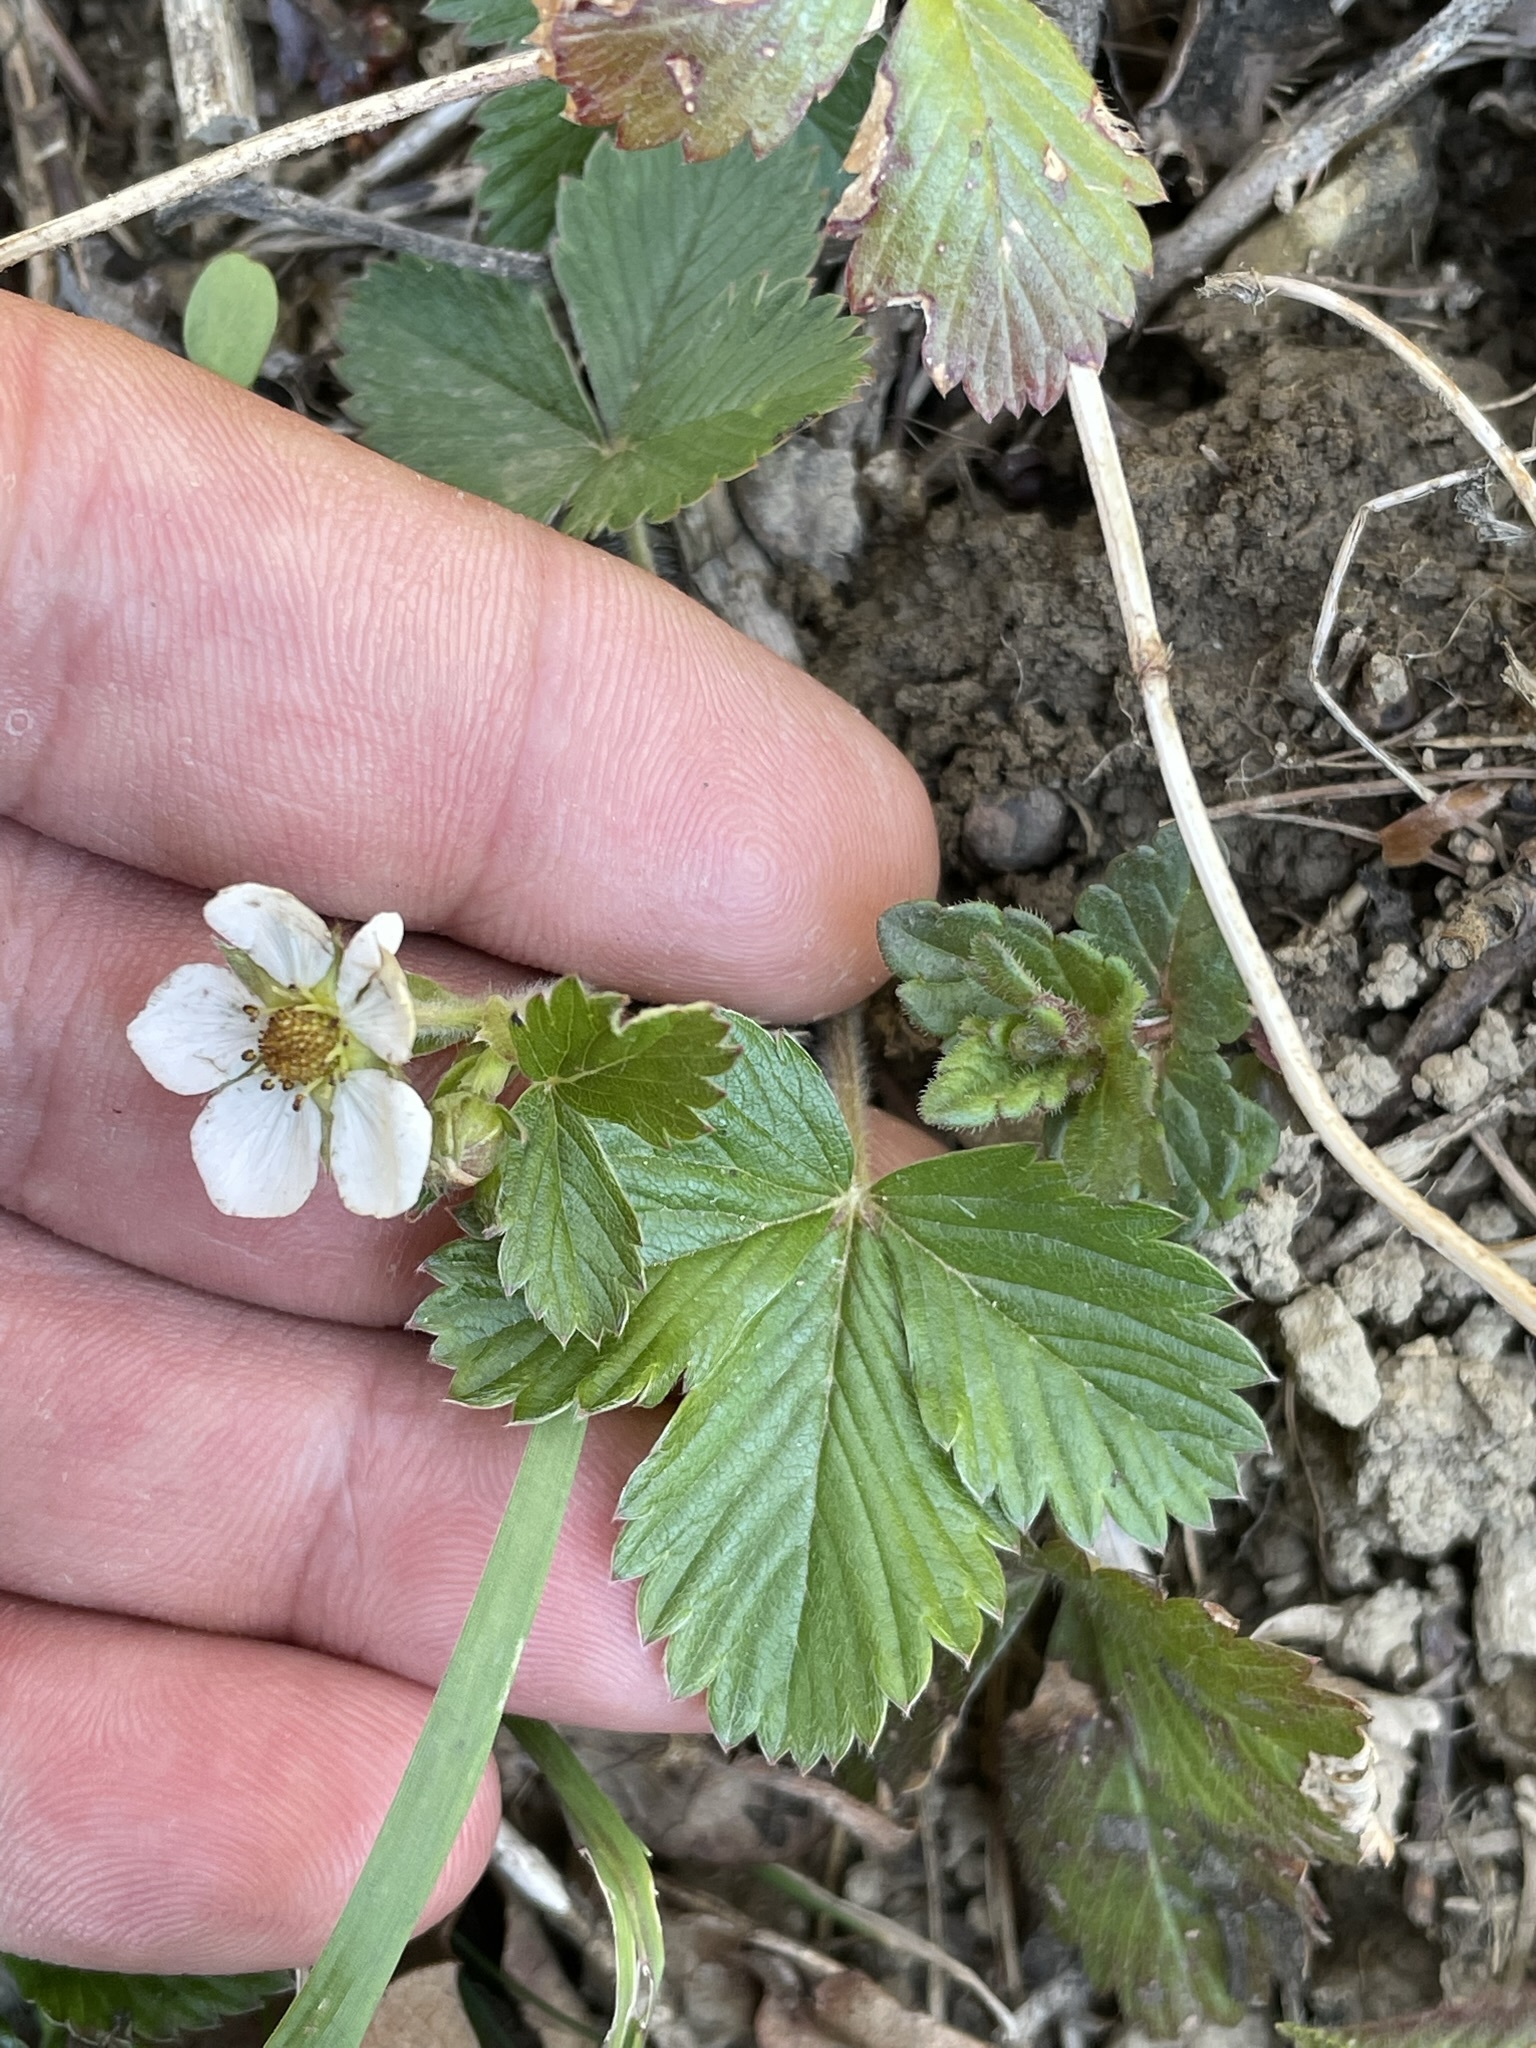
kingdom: Plantae
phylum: Tracheophyta
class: Magnoliopsida
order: Rosales
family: Rosaceae
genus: Fragaria
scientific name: Fragaria vesca
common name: Wild strawberry
